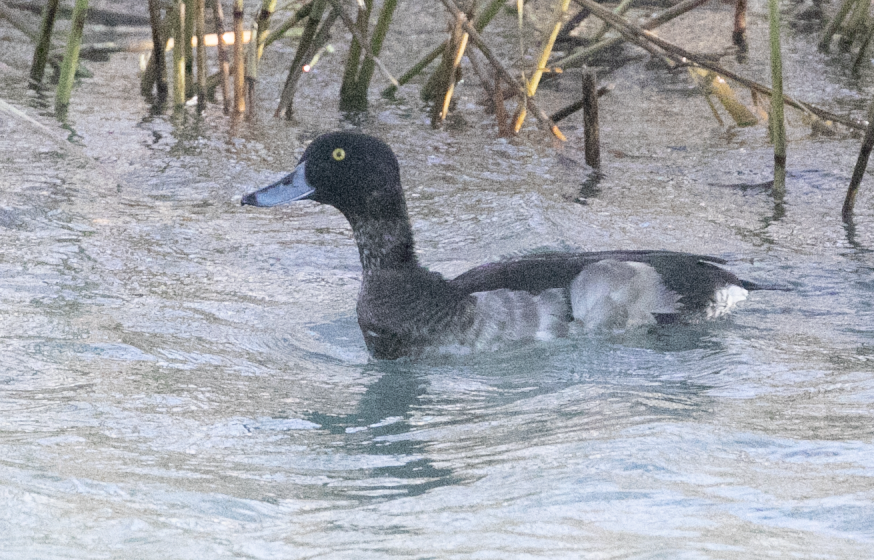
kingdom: Animalia
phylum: Chordata
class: Aves
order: Anseriformes
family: Anatidae
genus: Aythya
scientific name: Aythya fuligula
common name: Tufted duck
